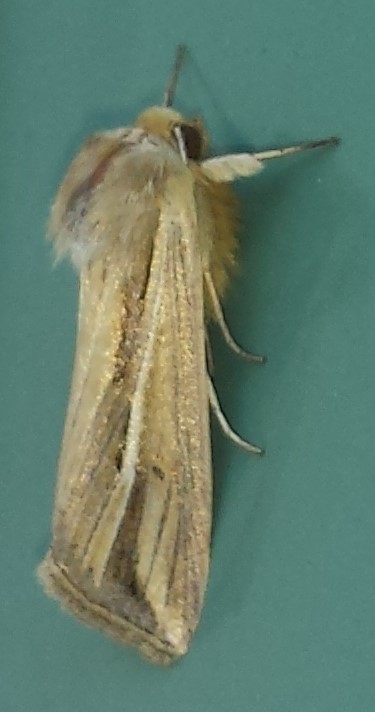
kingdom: Animalia
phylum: Arthropoda
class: Insecta
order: Lepidoptera
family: Noctuidae
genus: Dargida
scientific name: Dargida diffusa
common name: Wheat head armyworm
